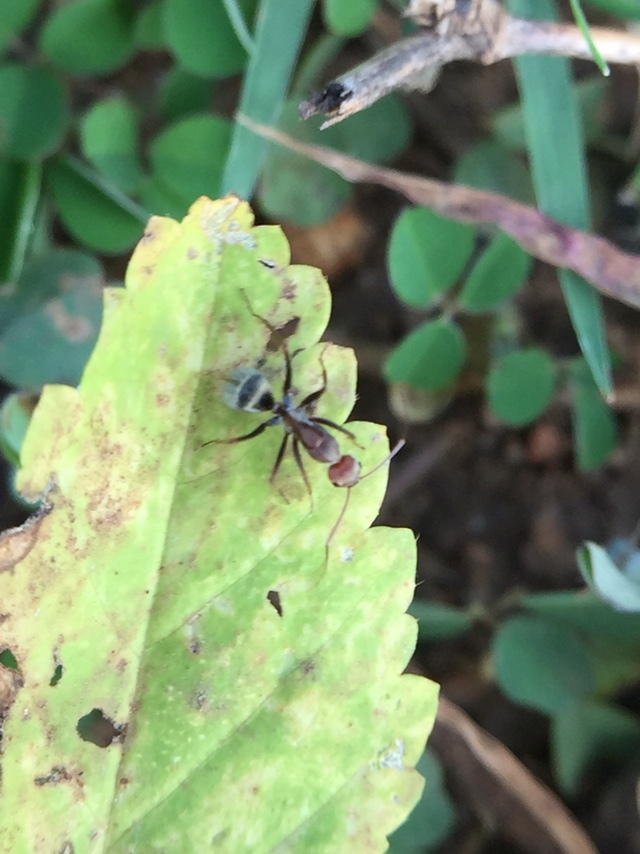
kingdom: Animalia
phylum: Arthropoda
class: Insecta
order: Hymenoptera
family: Formicidae
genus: Camponotus
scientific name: Camponotus rufoglaucus
